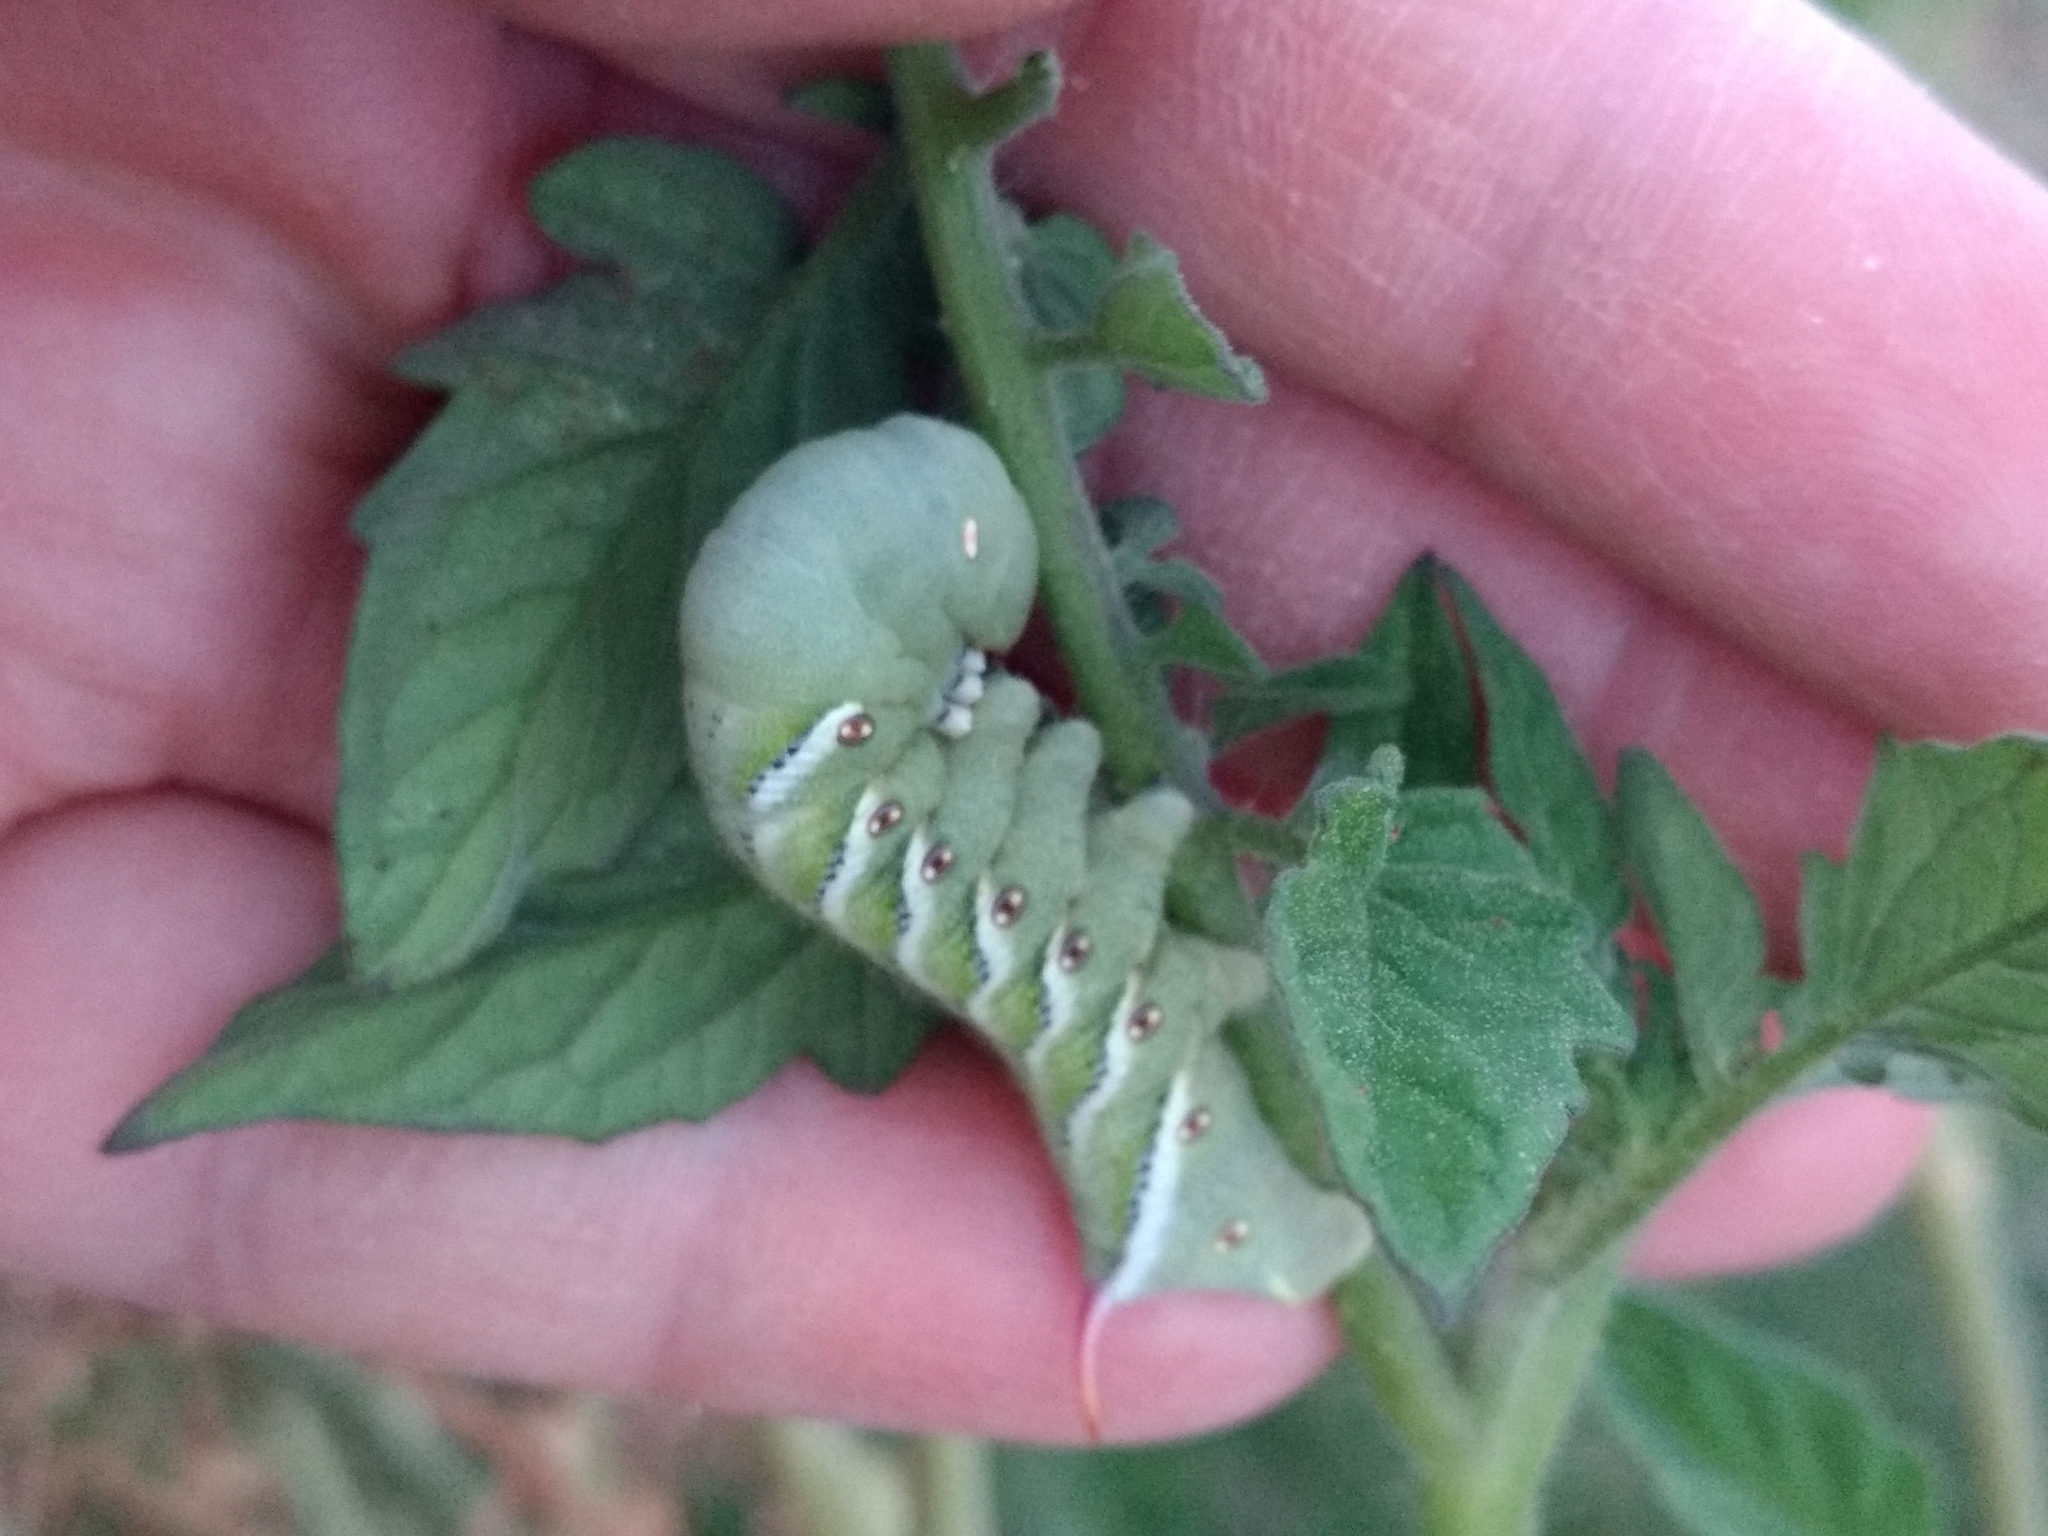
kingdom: Animalia
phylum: Arthropoda
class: Insecta
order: Lepidoptera
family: Sphingidae
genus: Manduca
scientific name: Manduca sexta
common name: Carolina sphinx
